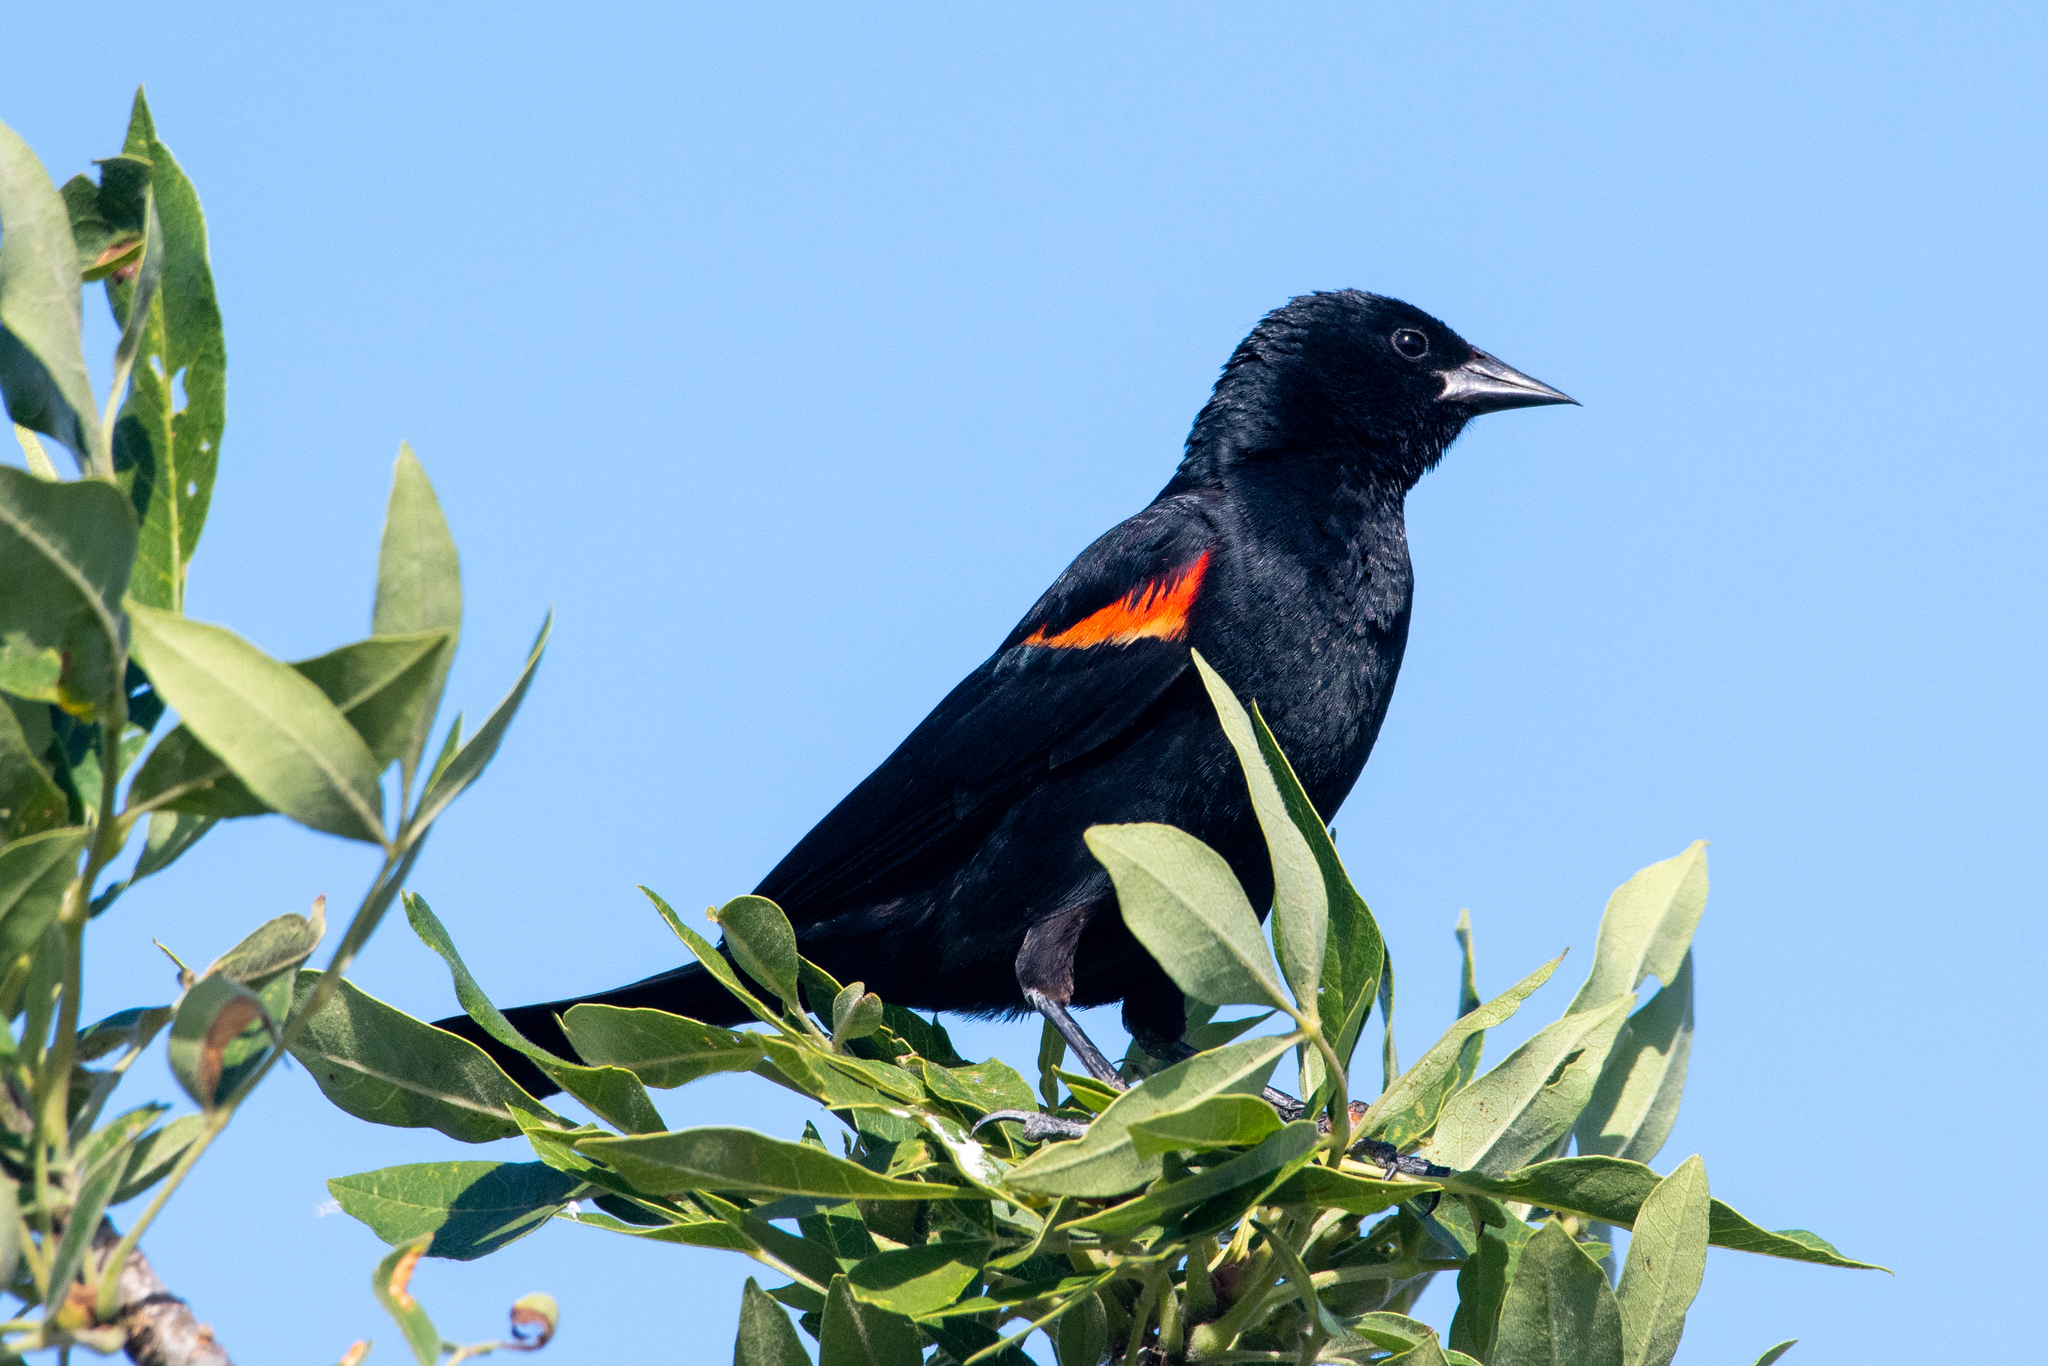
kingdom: Animalia
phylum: Chordata
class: Aves
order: Passeriformes
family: Icteridae
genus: Agelaius
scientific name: Agelaius phoeniceus
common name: Red-winged blackbird
